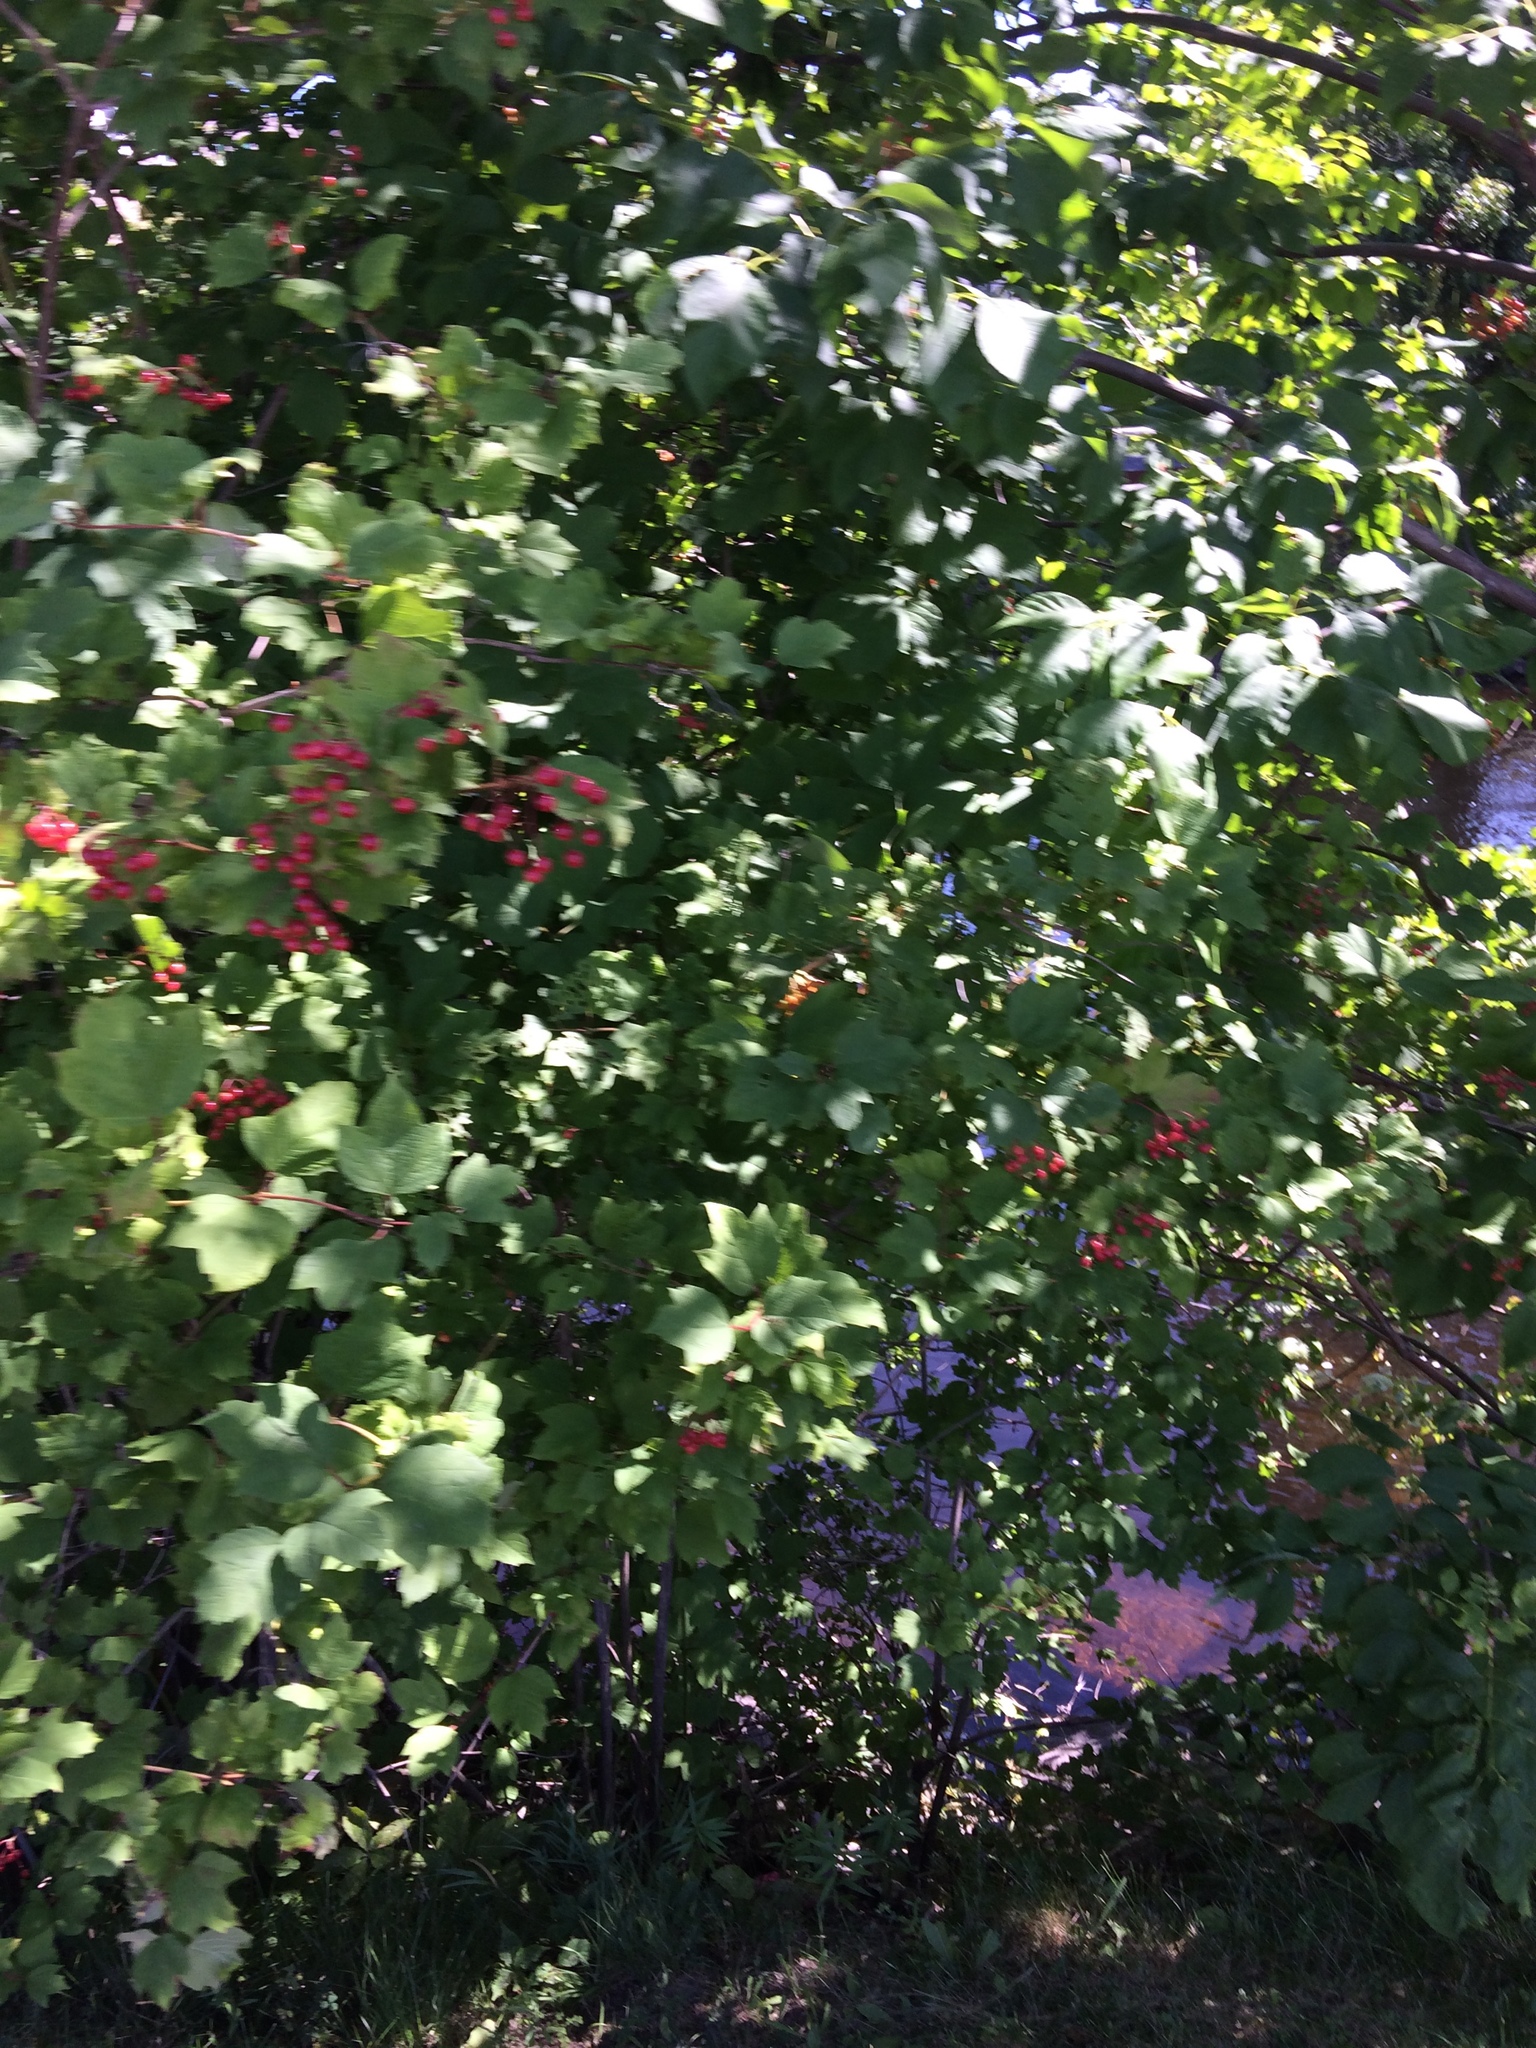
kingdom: Plantae
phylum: Tracheophyta
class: Magnoliopsida
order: Dipsacales
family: Viburnaceae
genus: Viburnum
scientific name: Viburnum opulus
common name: Guelder-rose
